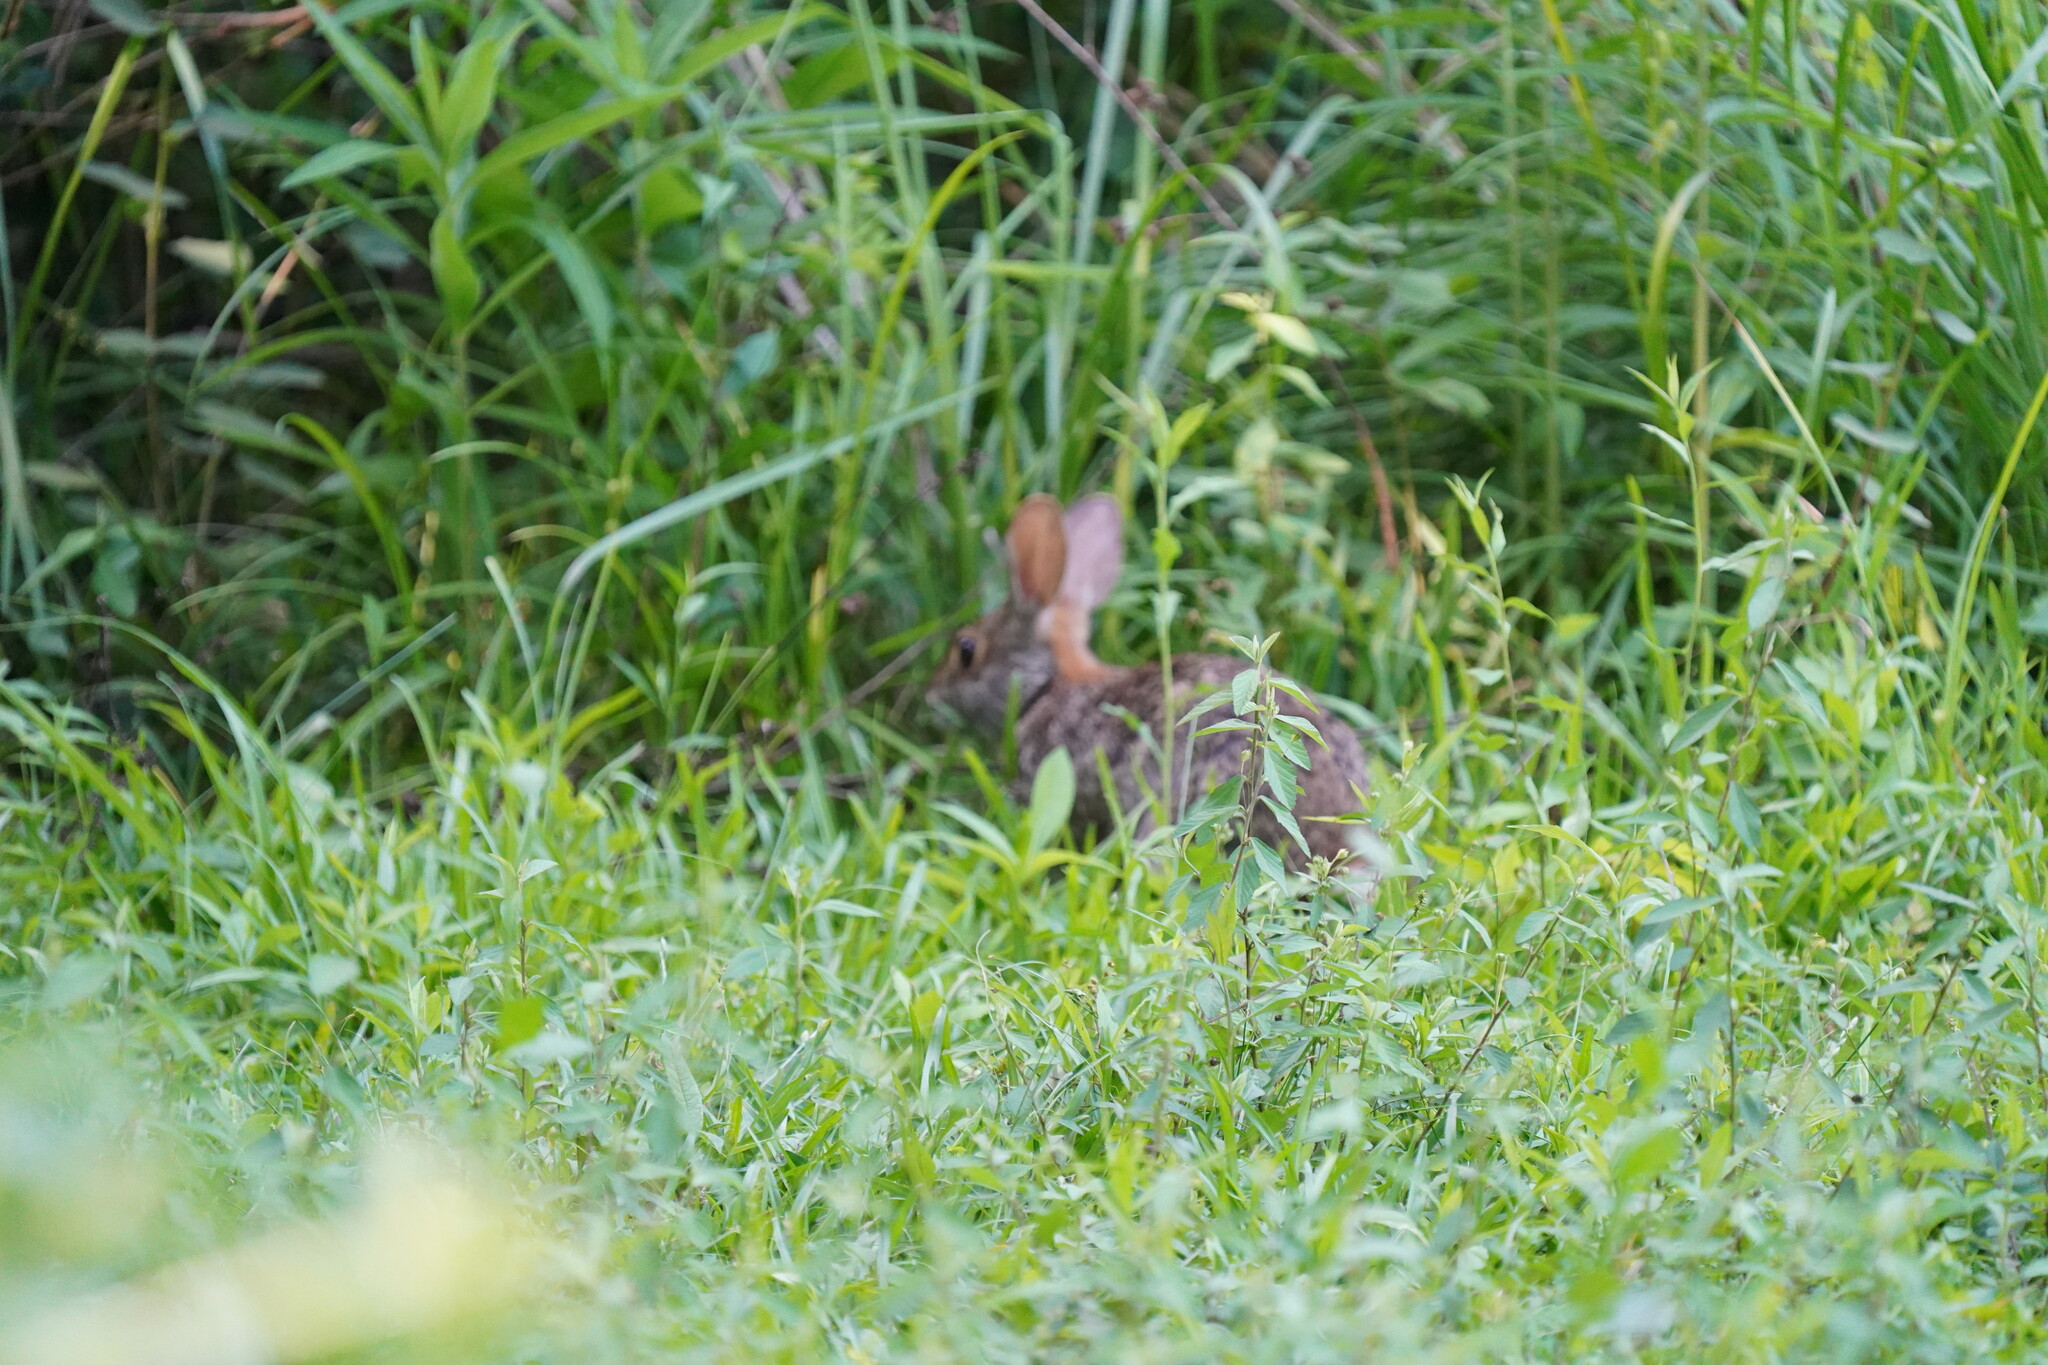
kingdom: Animalia
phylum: Chordata
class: Mammalia
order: Lagomorpha
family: Leporidae
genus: Sylvilagus
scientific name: Sylvilagus aquaticus
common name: Swamp rabbit
